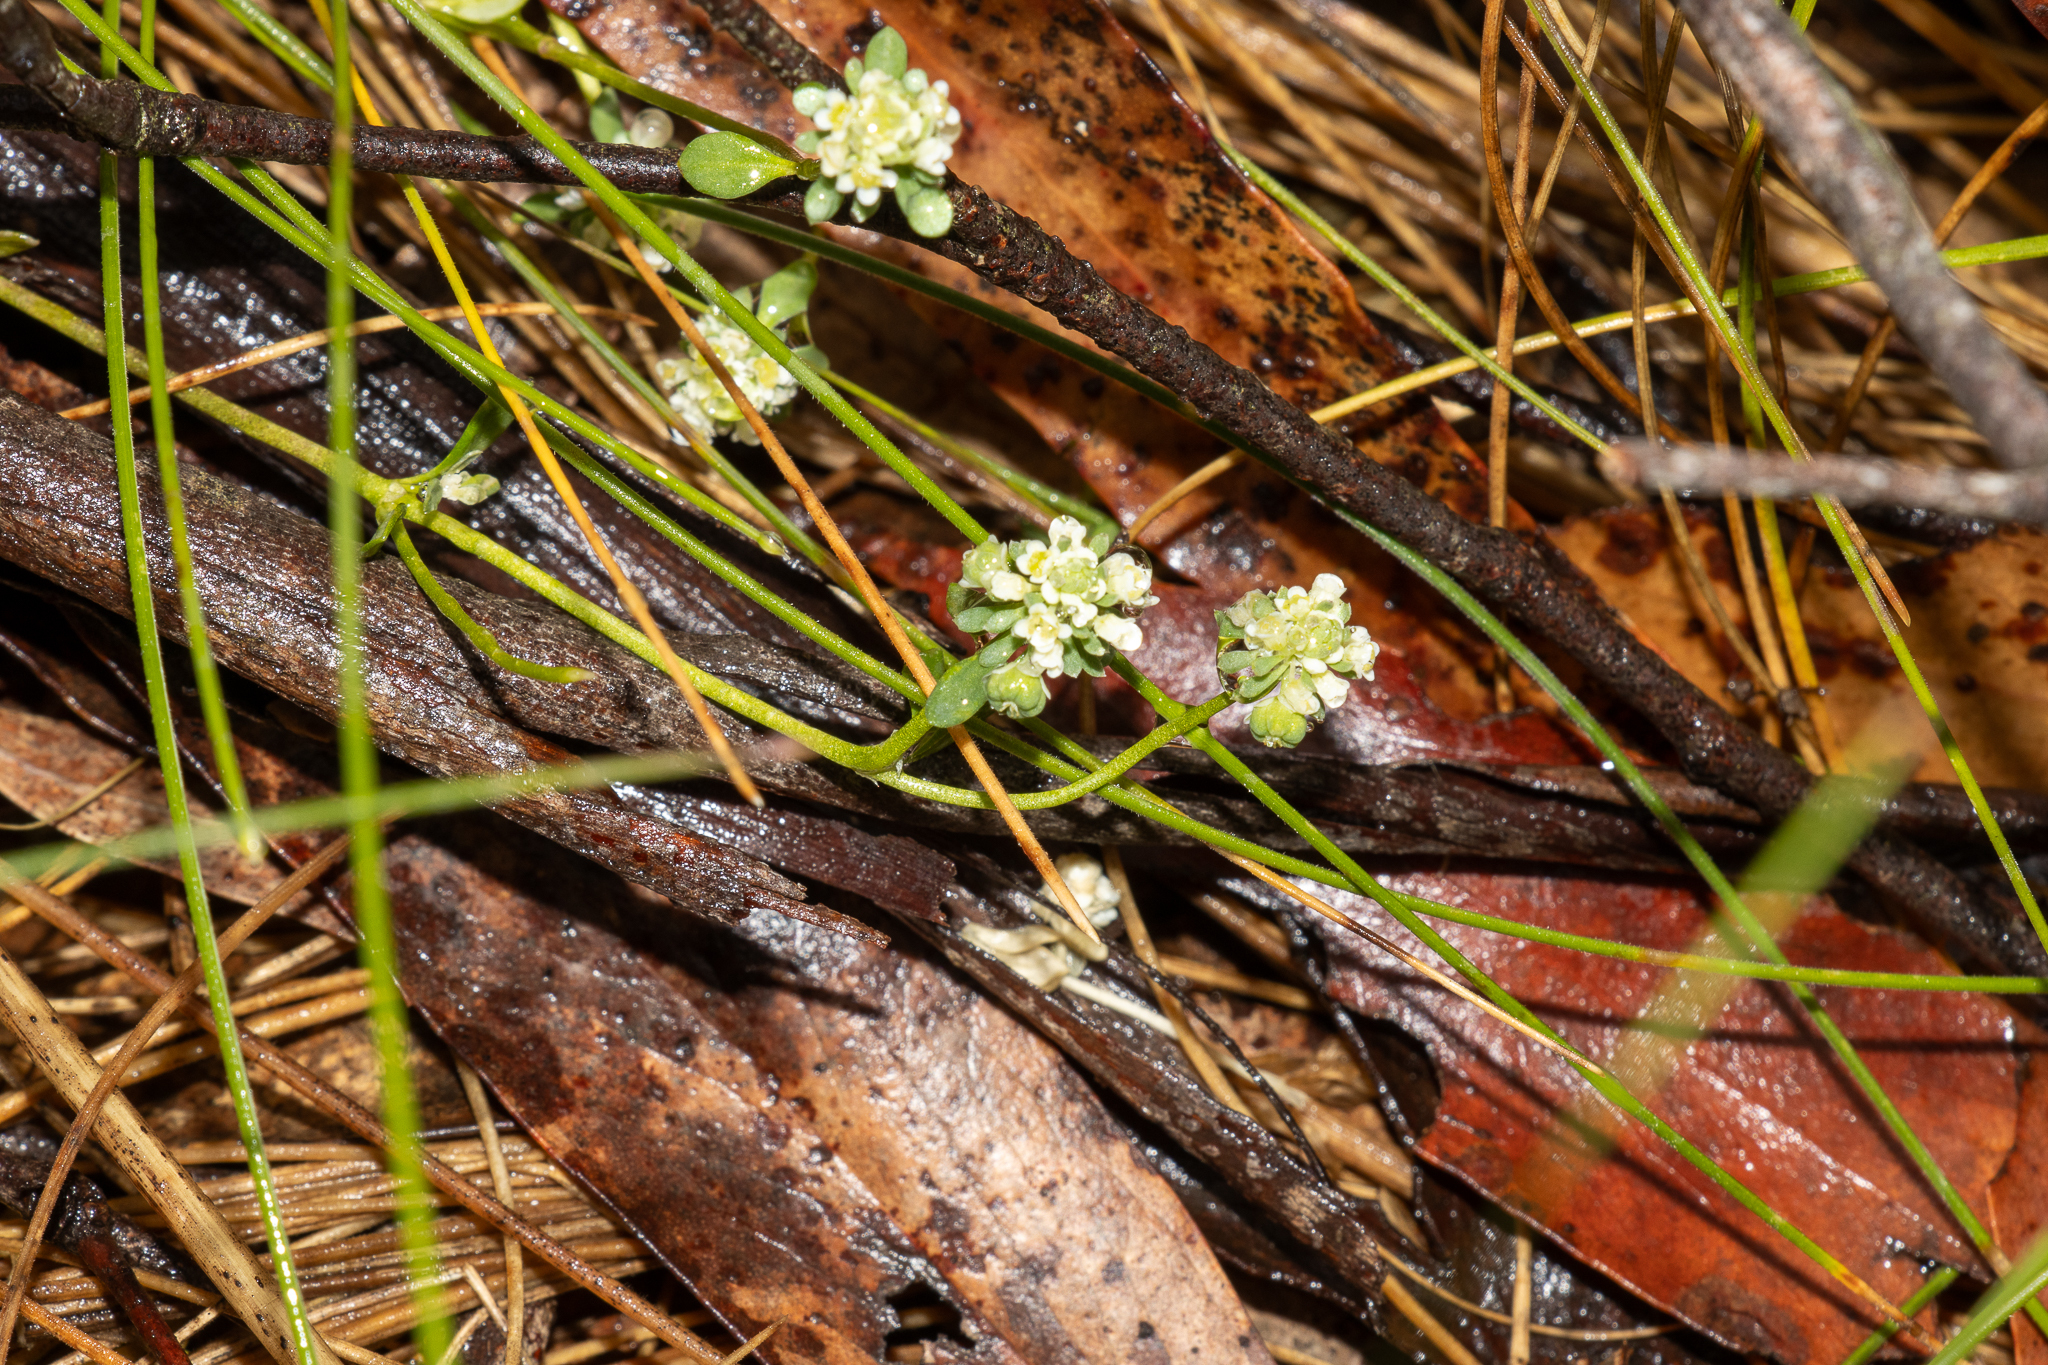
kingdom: Plantae
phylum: Tracheophyta
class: Magnoliopsida
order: Malpighiales
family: Phyllanthaceae
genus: Poranthera
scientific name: Poranthera microphylla
